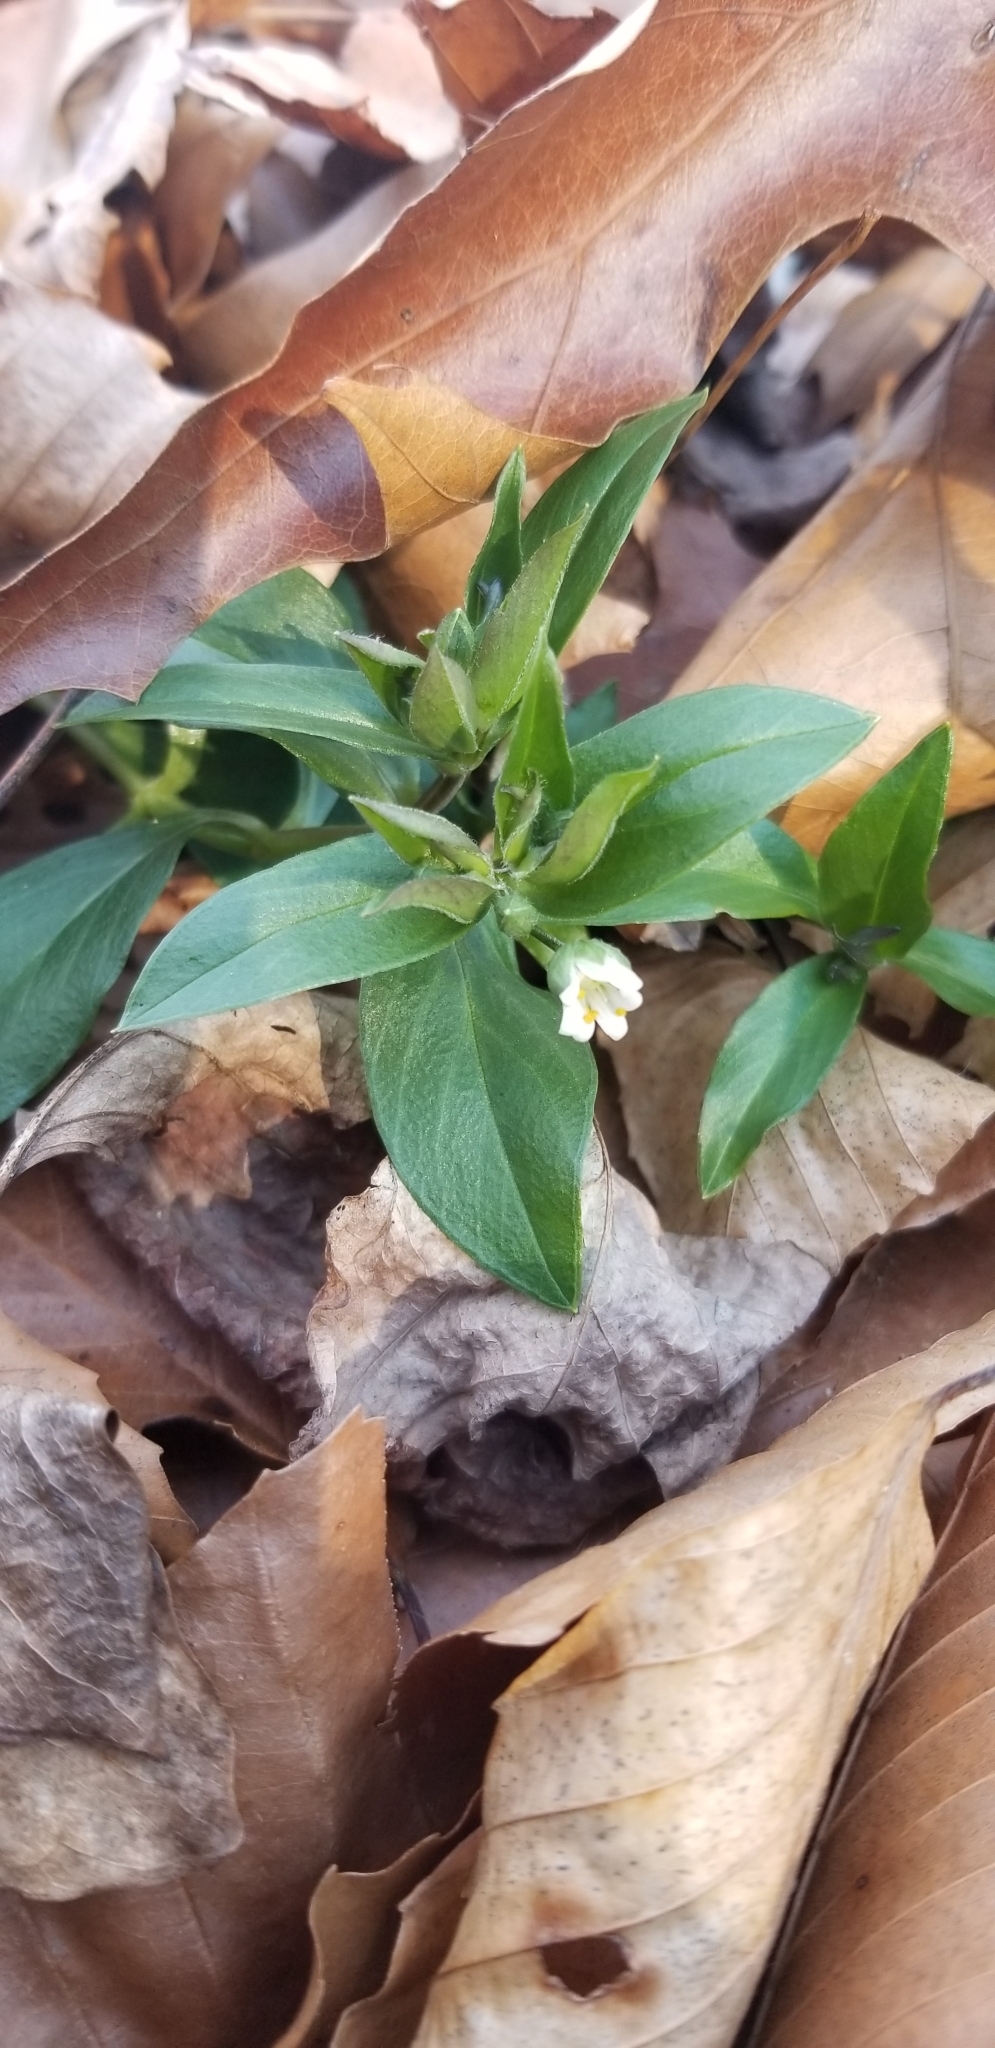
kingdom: Plantae
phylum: Tracheophyta
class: Magnoliopsida
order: Caryophyllales
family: Caryophyllaceae
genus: Stellaria
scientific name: Stellaria pubera
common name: Star chickweed
